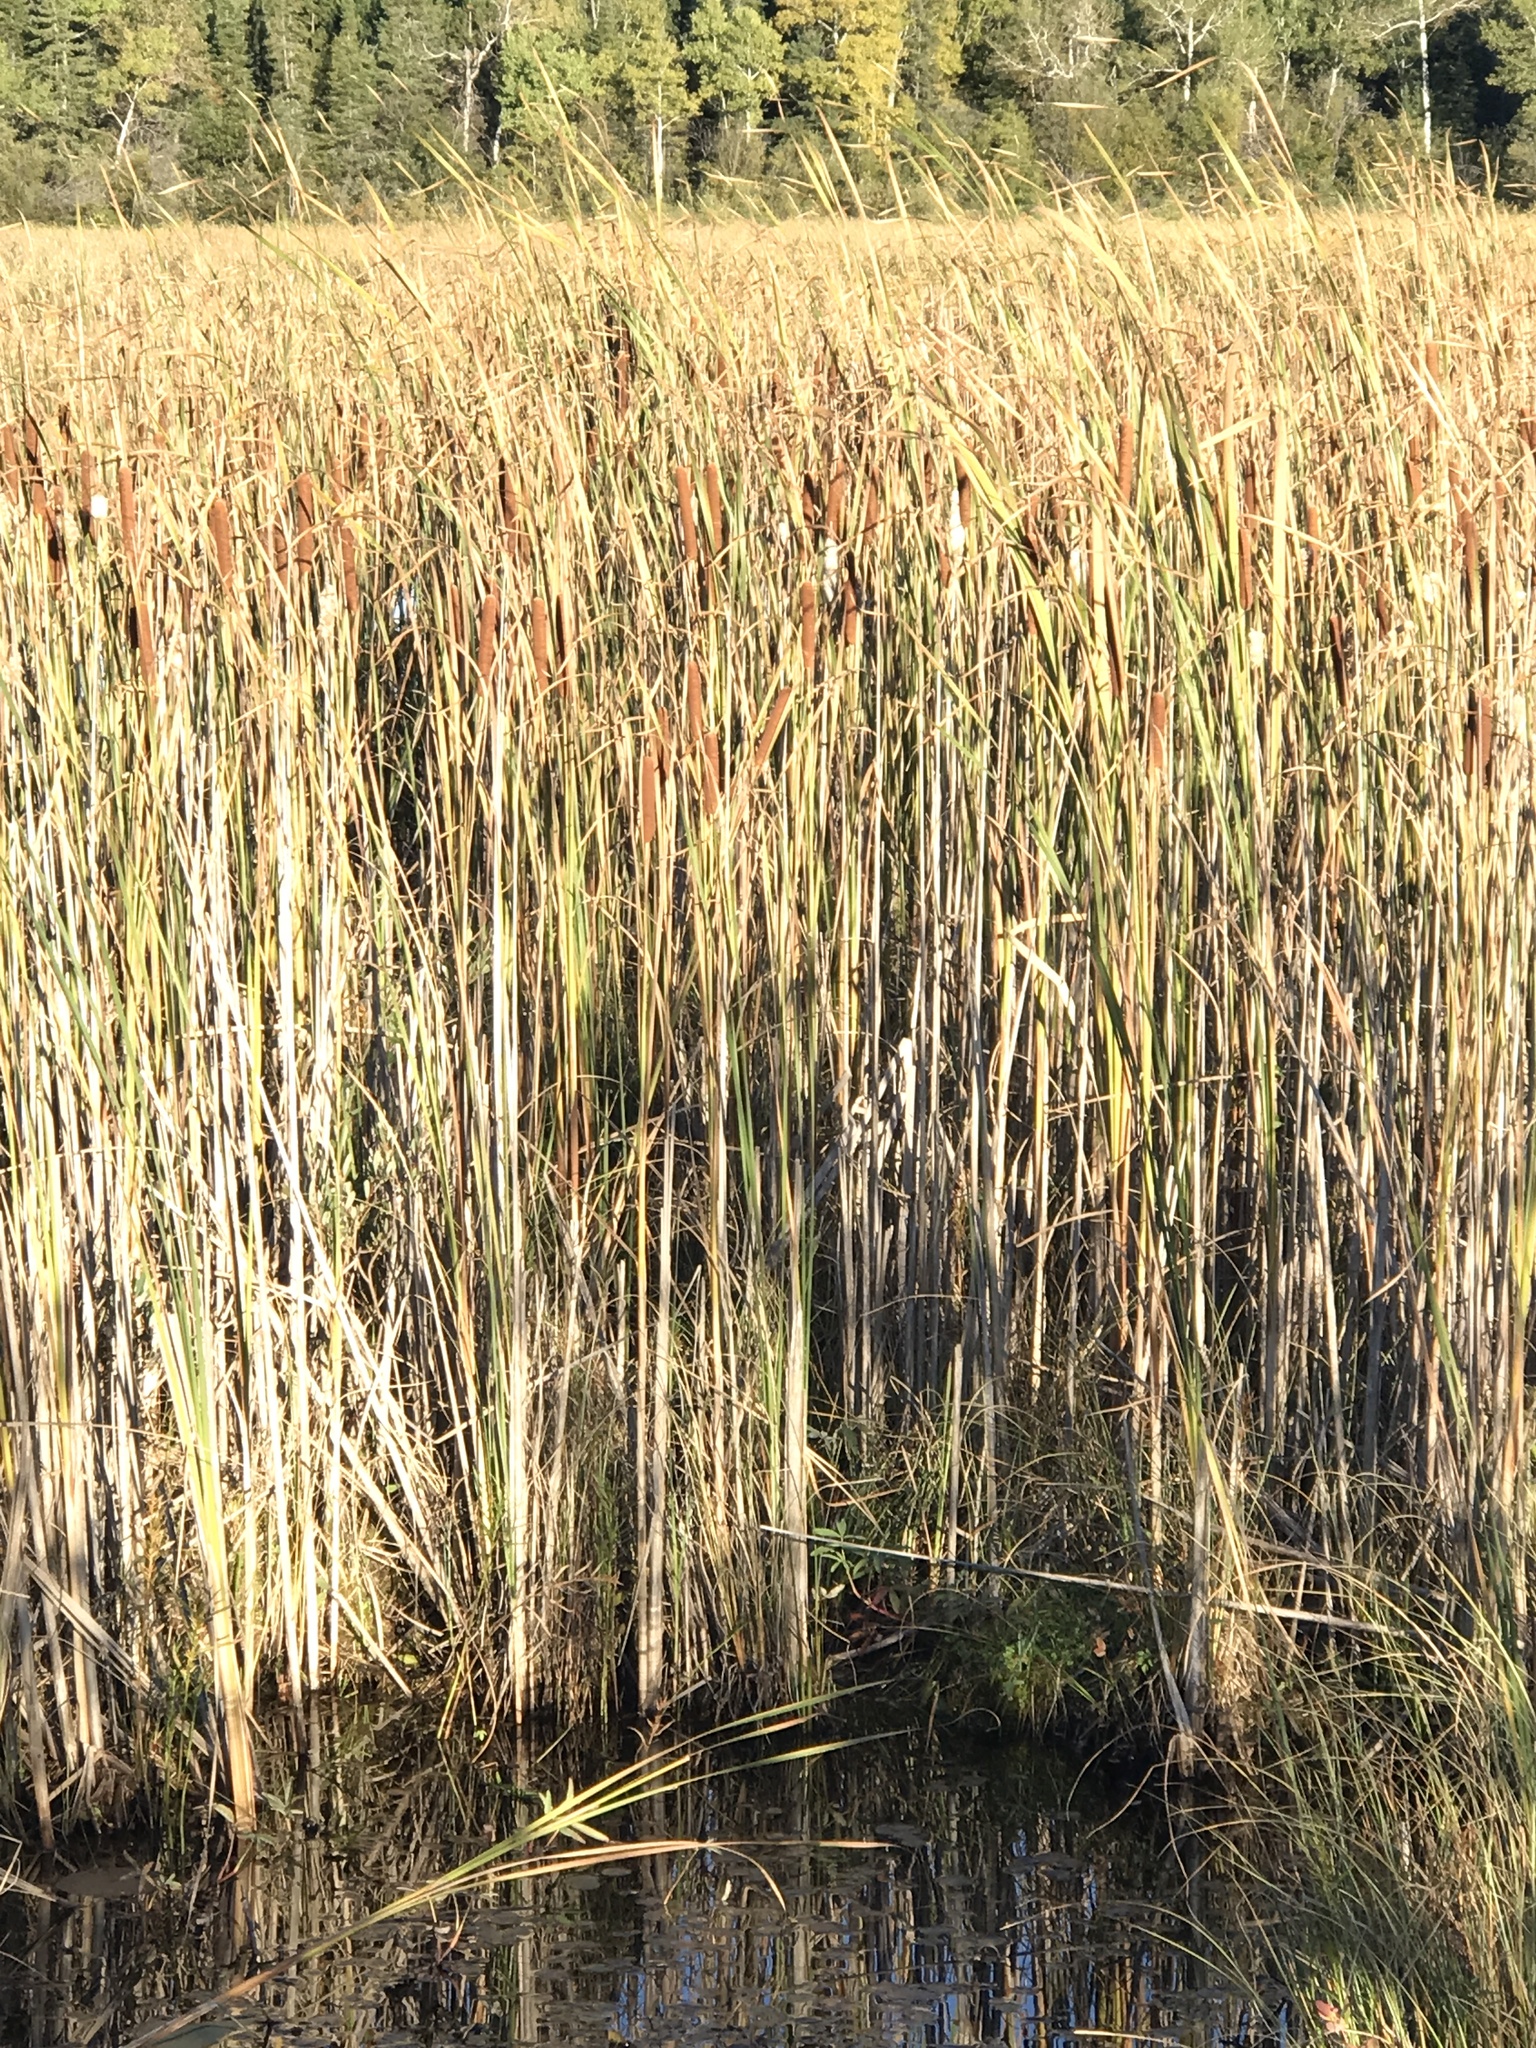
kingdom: Plantae
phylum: Tracheophyta
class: Liliopsida
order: Poales
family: Typhaceae
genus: Typha
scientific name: Typha angustifolia
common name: Lesser bulrush
